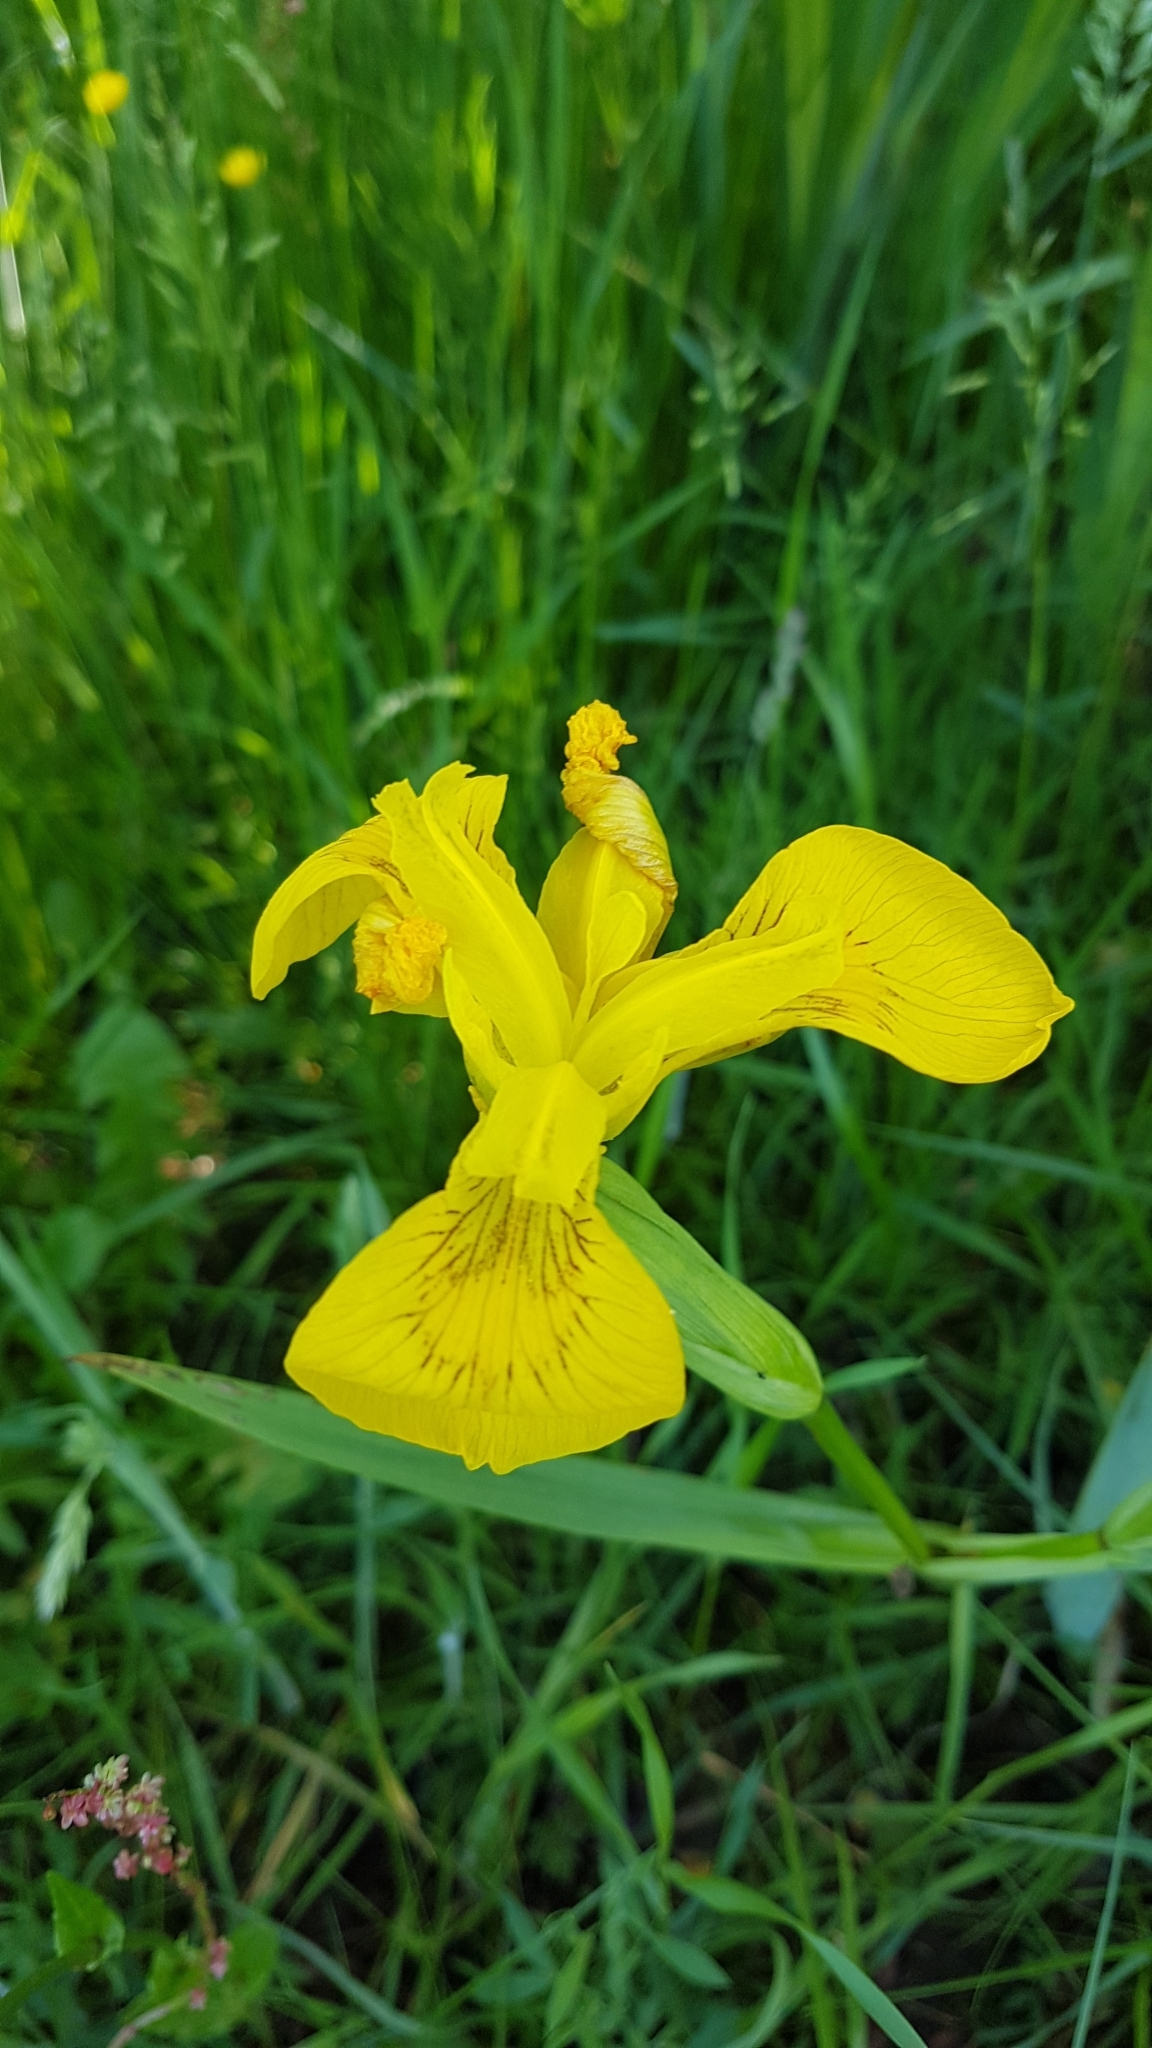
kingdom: Plantae
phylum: Tracheophyta
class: Liliopsida
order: Asparagales
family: Iridaceae
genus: Iris
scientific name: Iris pseudacorus
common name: Yellow flag
